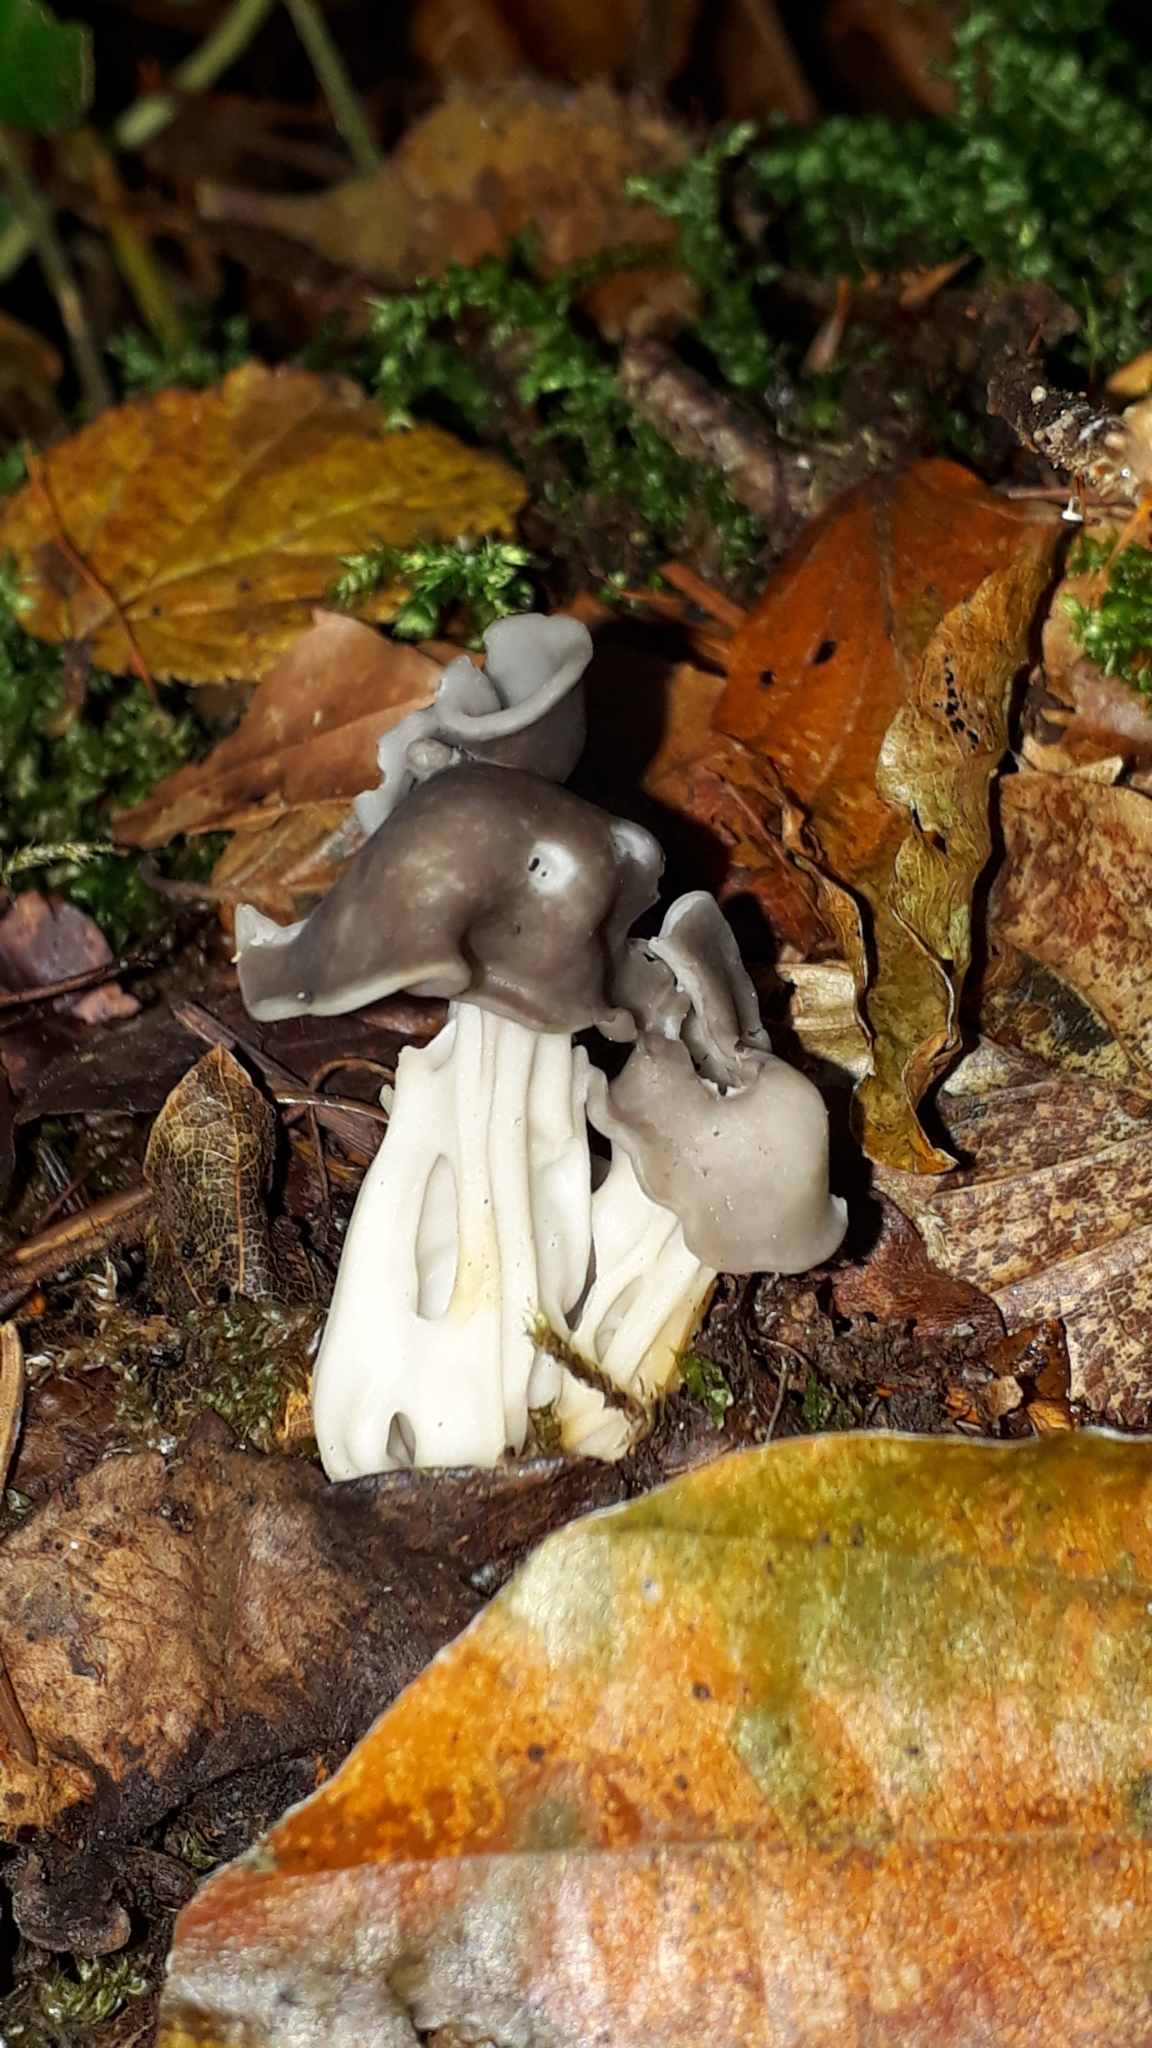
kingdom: Fungi
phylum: Ascomycota
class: Pezizomycetes
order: Pezizales
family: Helvellaceae
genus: Helvella
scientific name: Helvella lacunosa
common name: Elfin saddle
